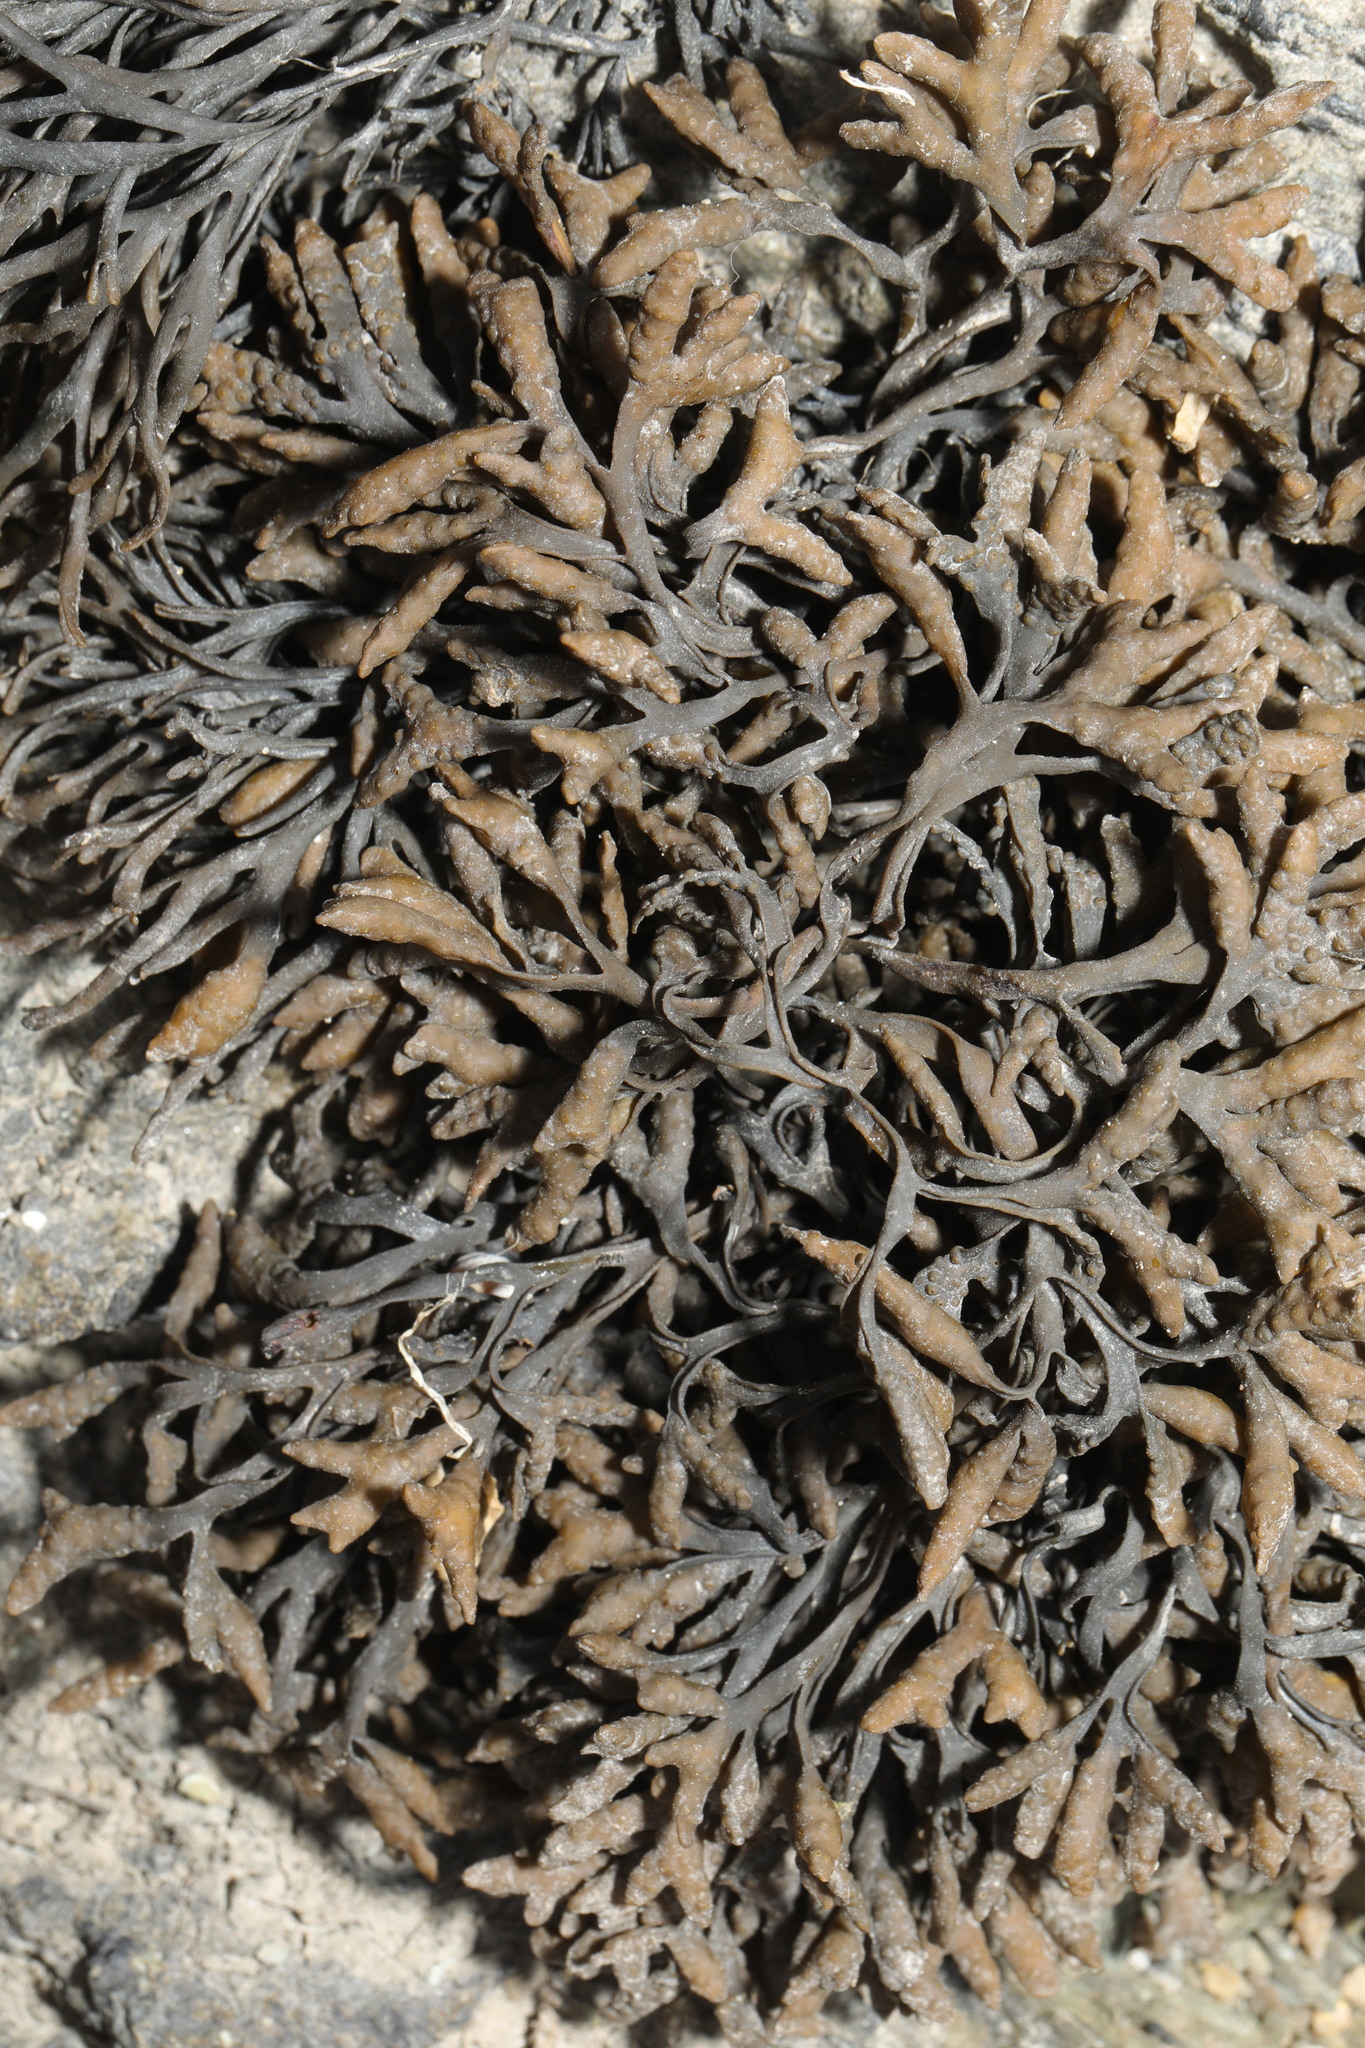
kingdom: Chromista
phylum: Ochrophyta
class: Phaeophyceae
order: Fucales
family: Fucaceae
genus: Pelvetia
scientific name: Pelvetia canaliculata
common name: Channelled wrack
